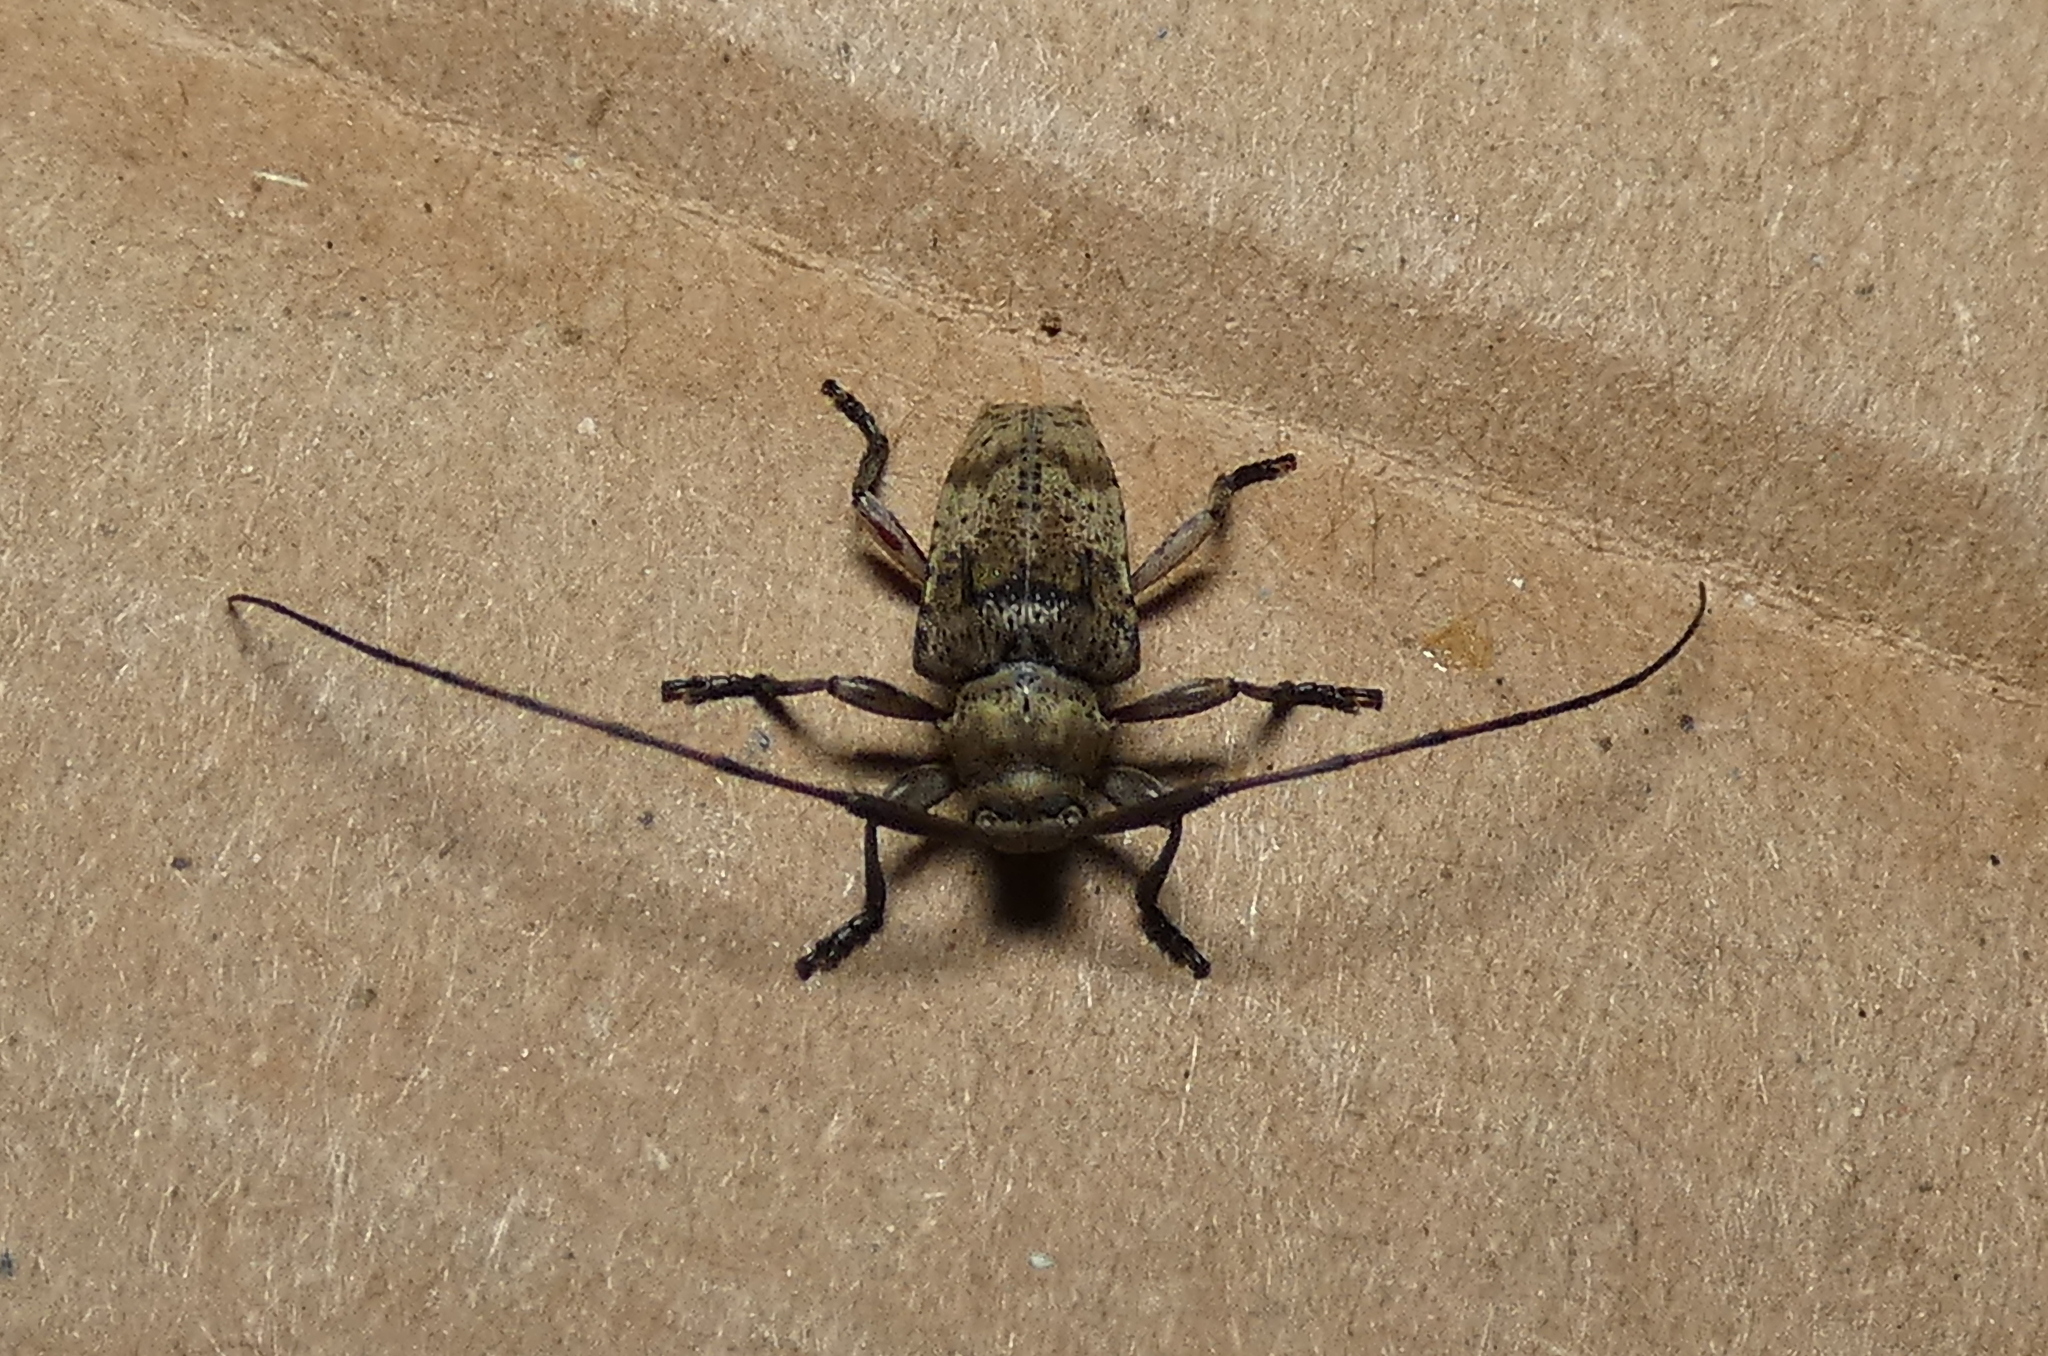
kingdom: Animalia
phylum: Arthropoda
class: Insecta
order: Coleoptera
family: Cerambycidae
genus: Acanthodoxus
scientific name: Acanthodoxus delta
